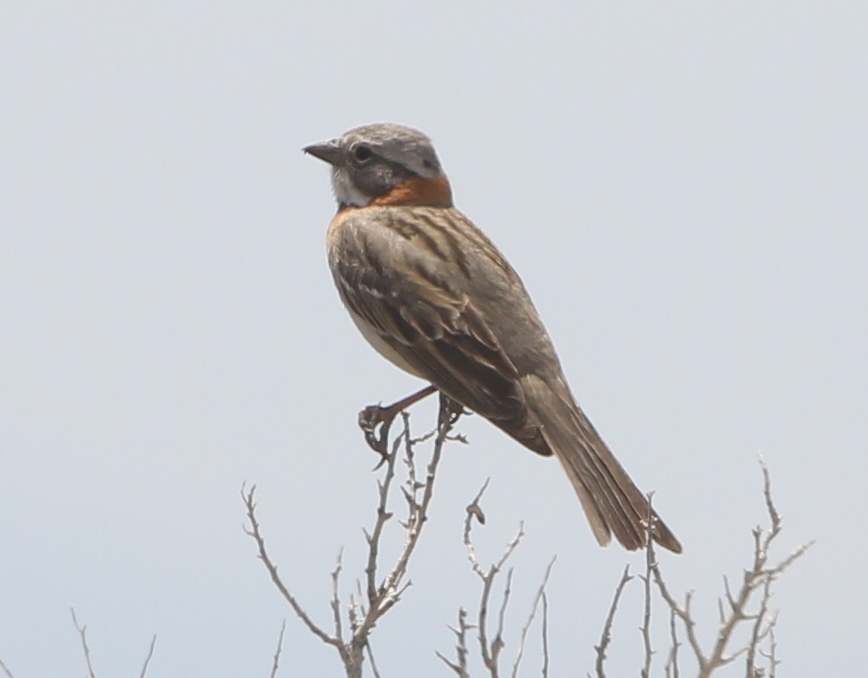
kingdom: Animalia
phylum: Chordata
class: Aves
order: Passeriformes
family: Passerellidae
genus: Zonotrichia
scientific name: Zonotrichia capensis
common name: Rufous-collared sparrow
